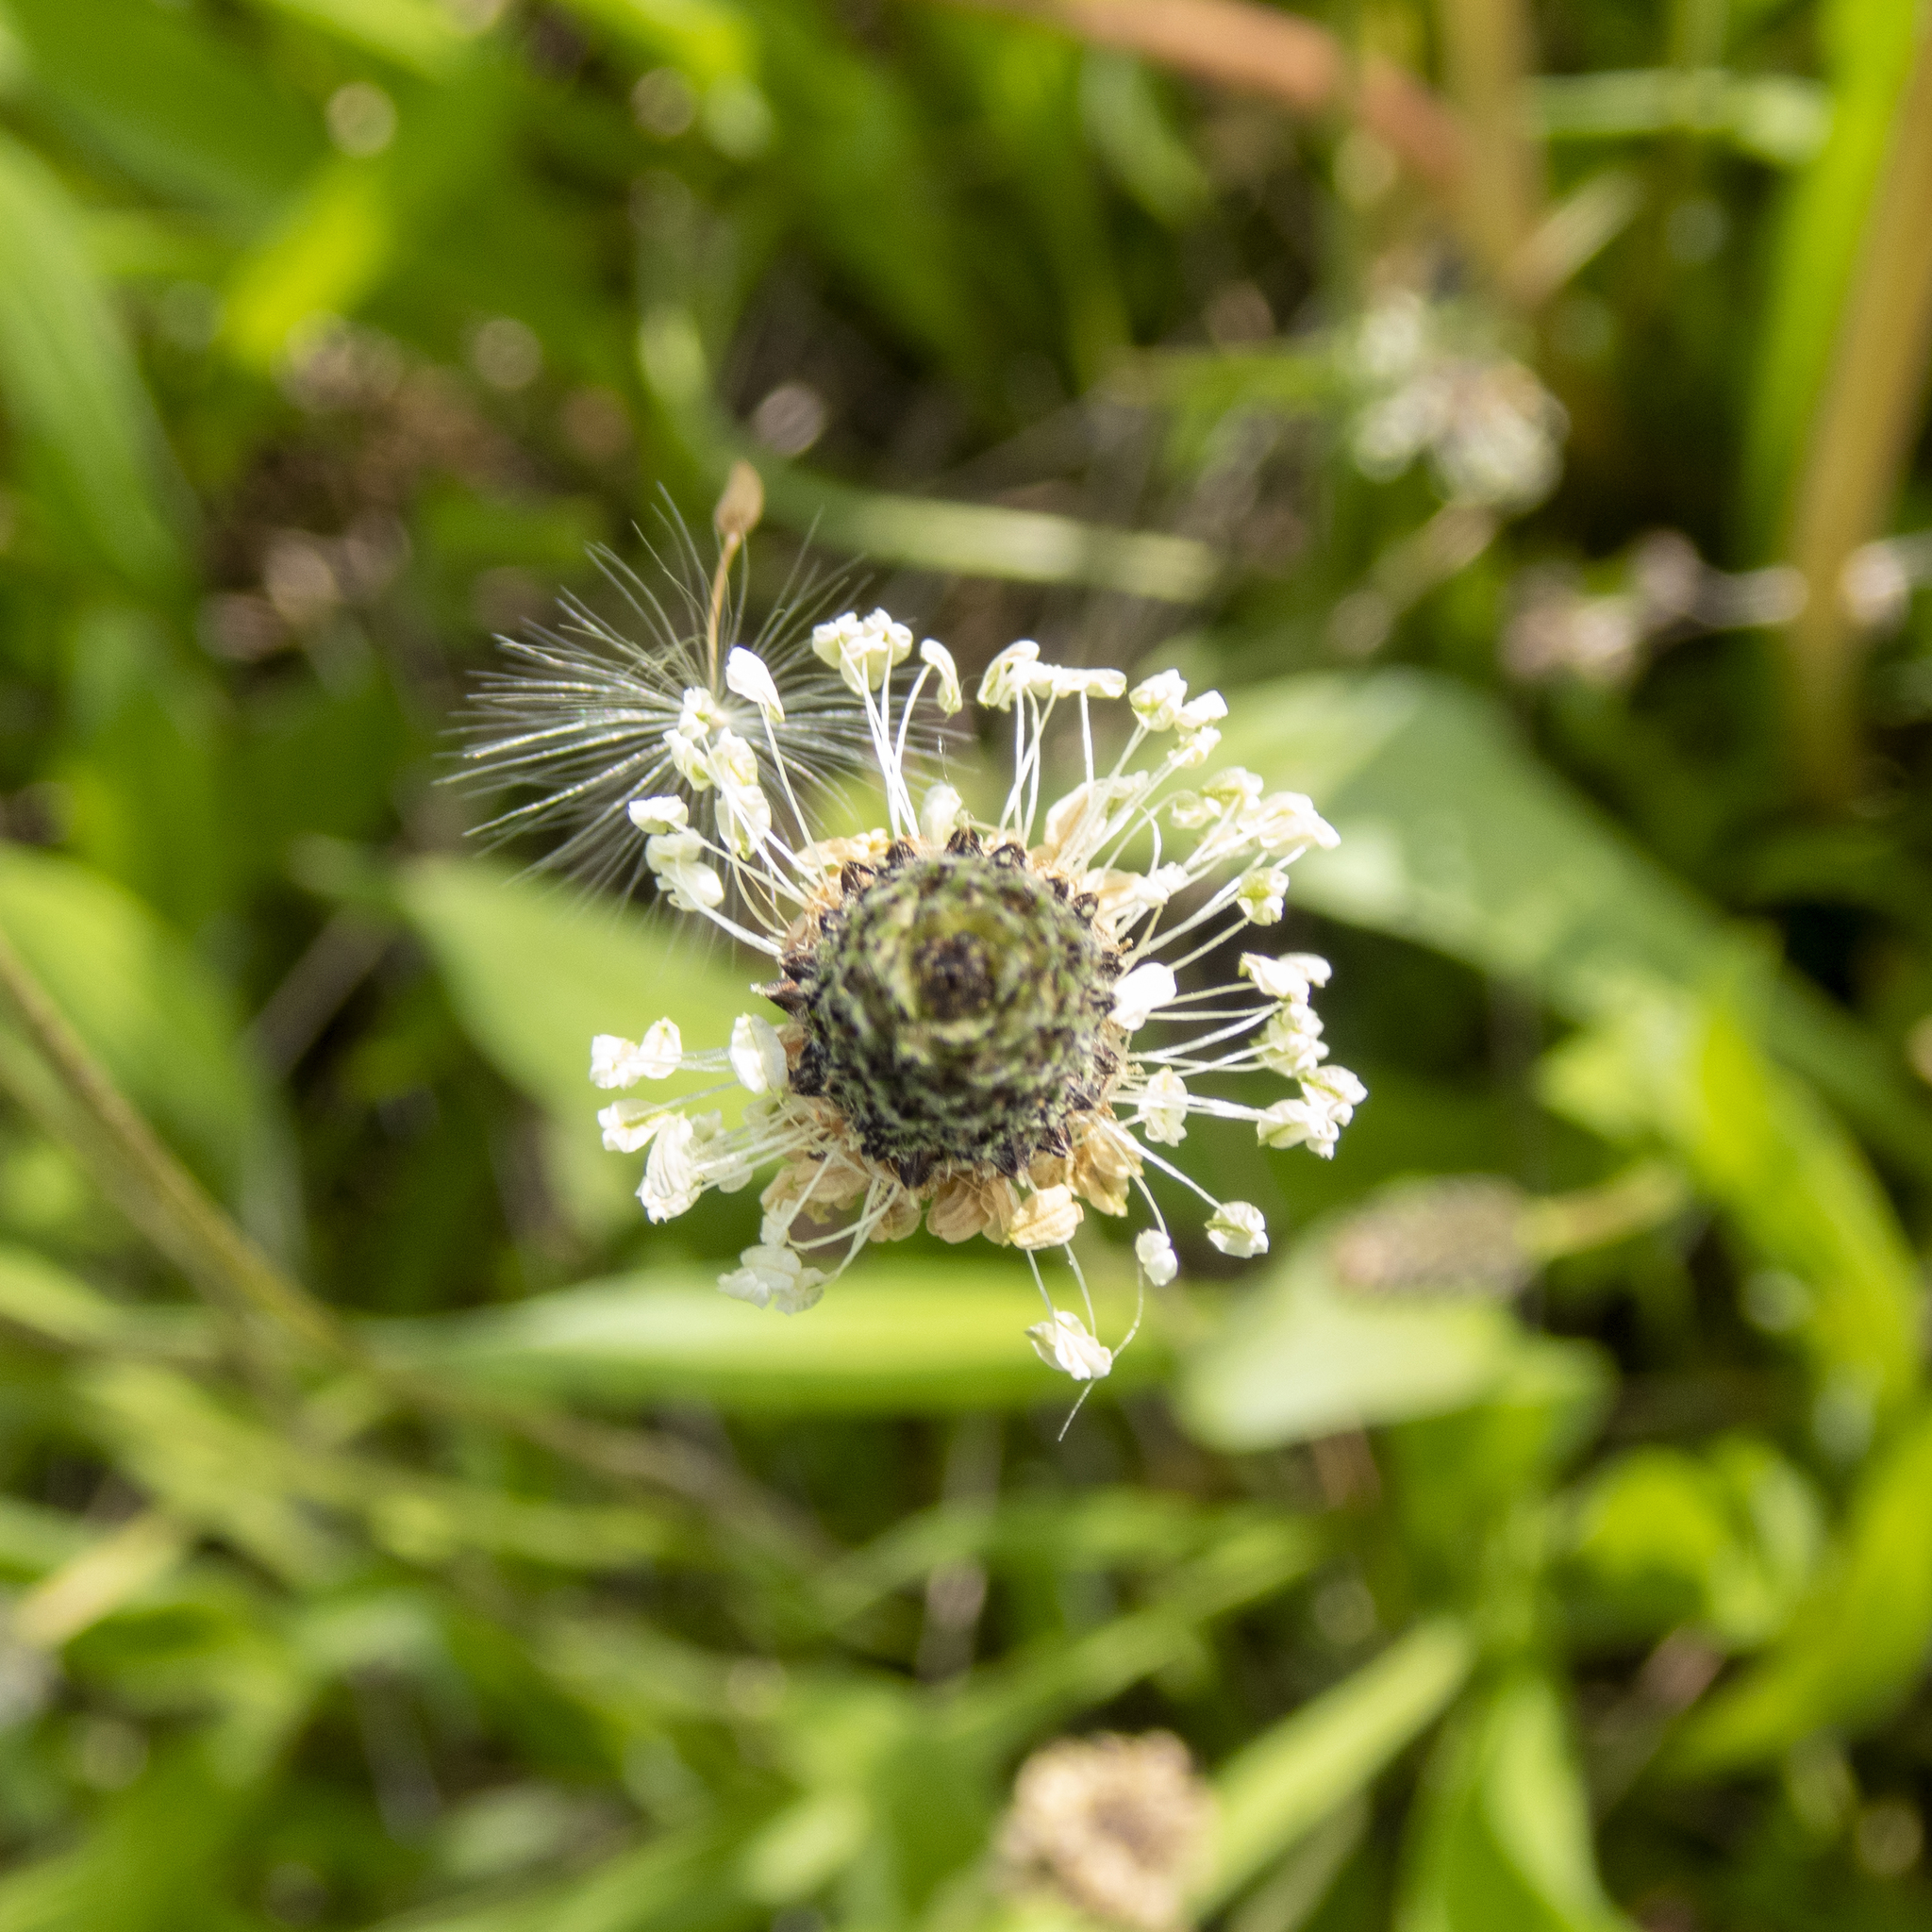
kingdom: Plantae
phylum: Tracheophyta
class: Magnoliopsida
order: Lamiales
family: Plantaginaceae
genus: Plantago
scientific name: Plantago lanceolata
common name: Ribwort plantain
